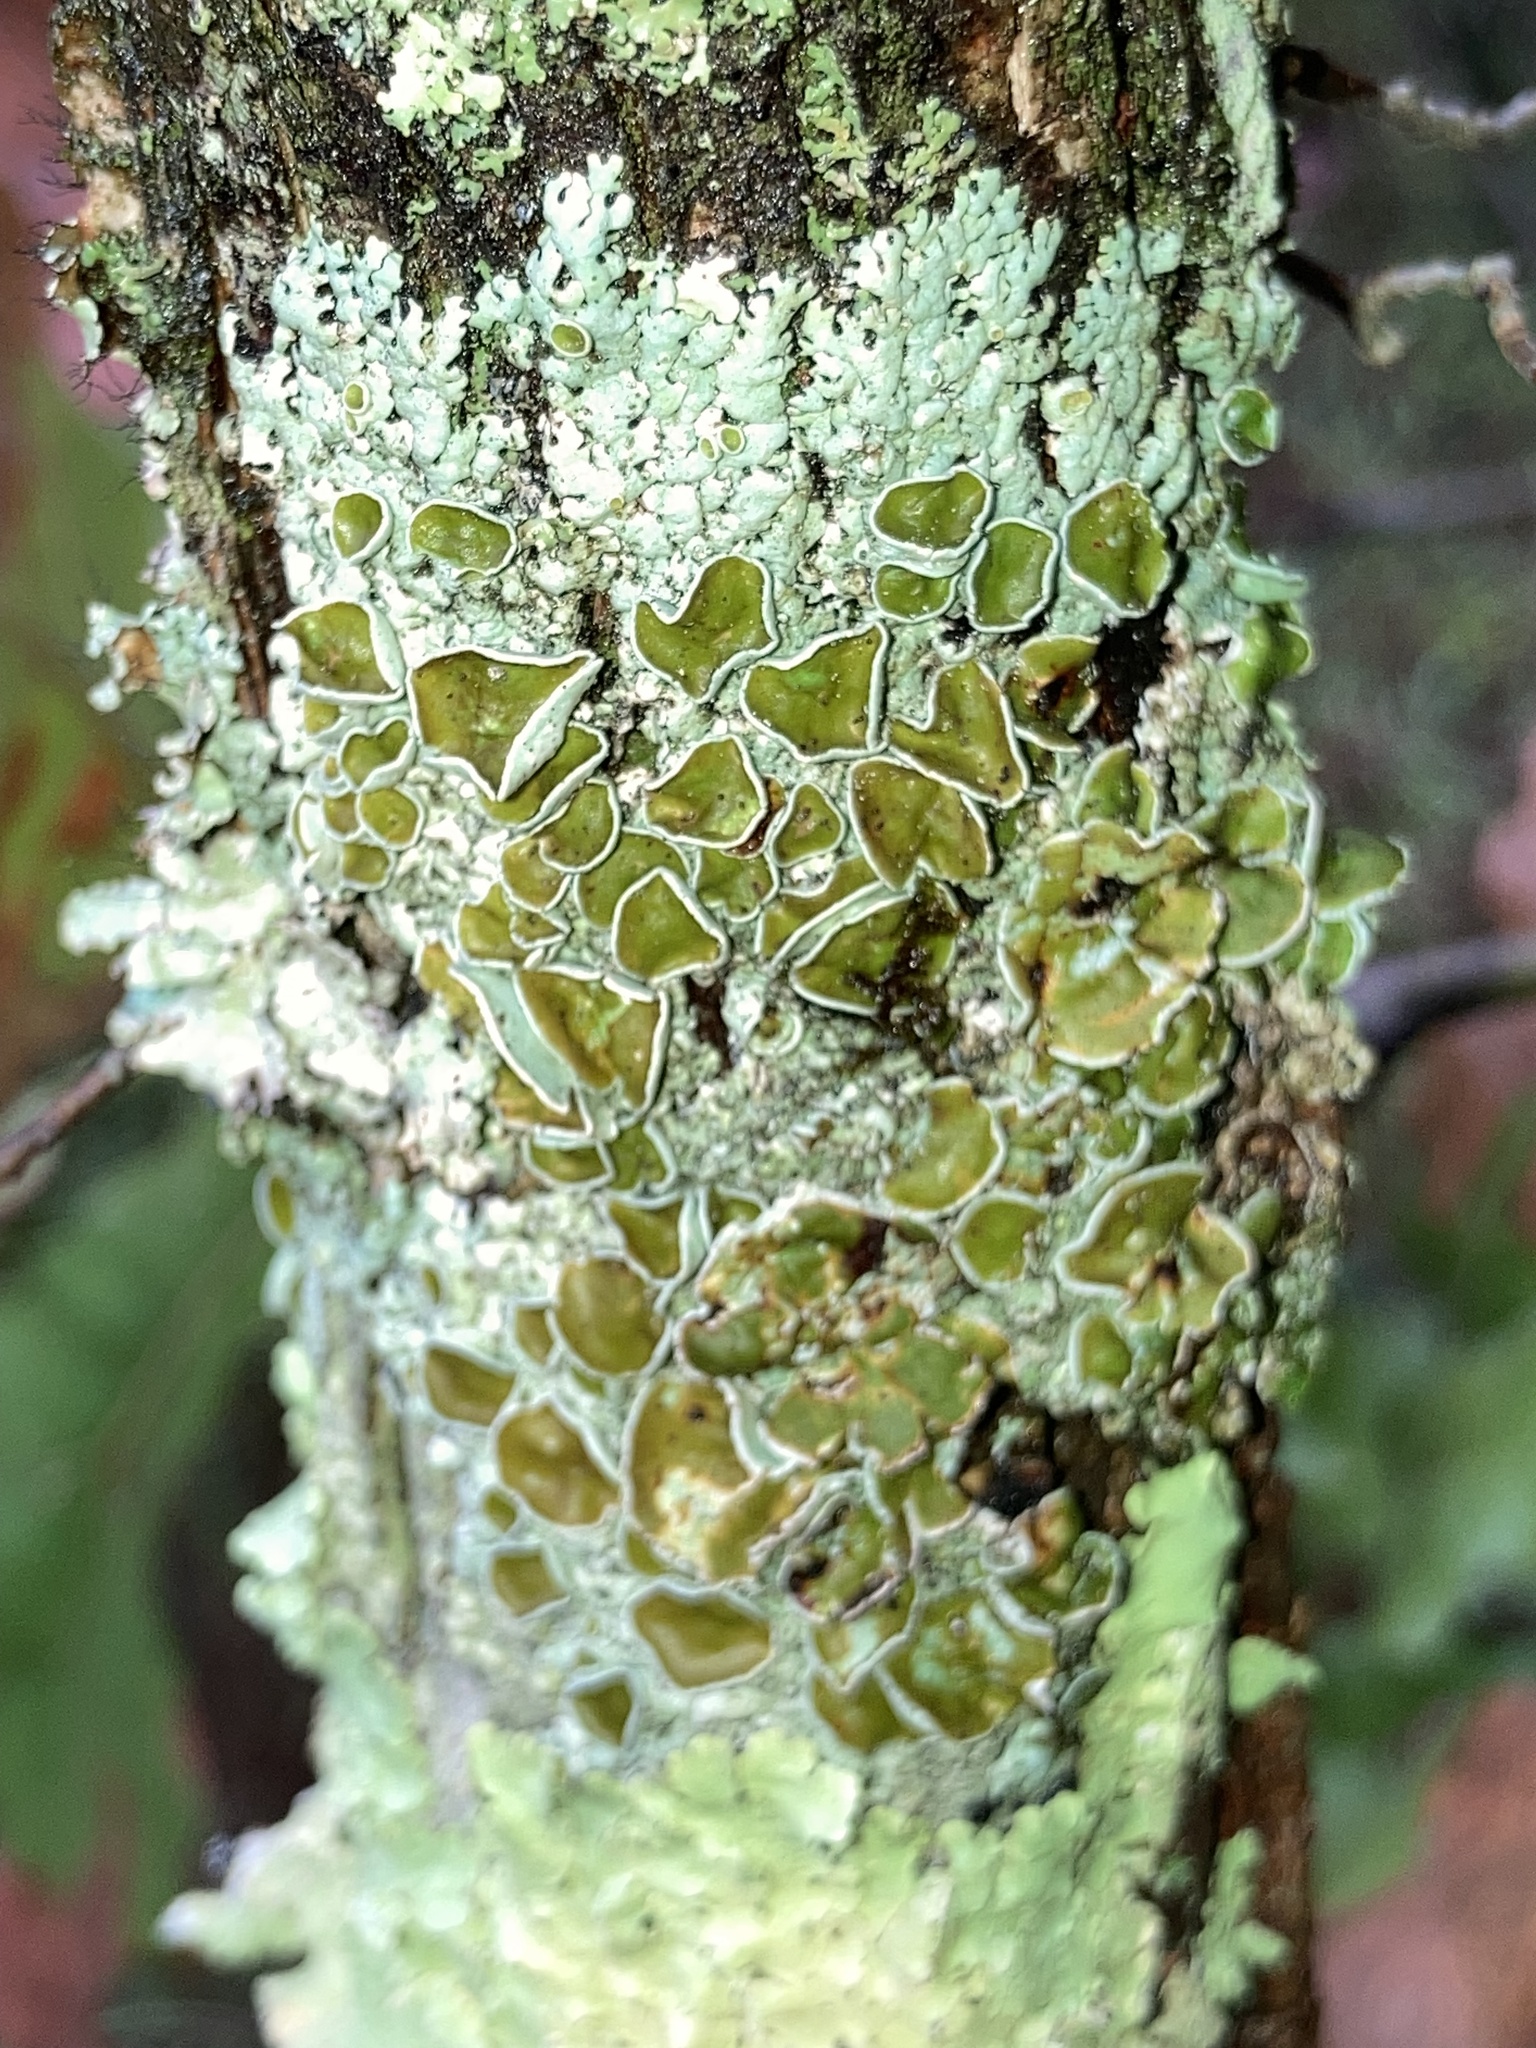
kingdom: Fungi
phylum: Ascomycota
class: Lecanoromycetes
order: Lecanorales
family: Parmeliaceae
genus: Myelochroa
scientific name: Myelochroa galbina
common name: Smooth axil-bristle lichen
